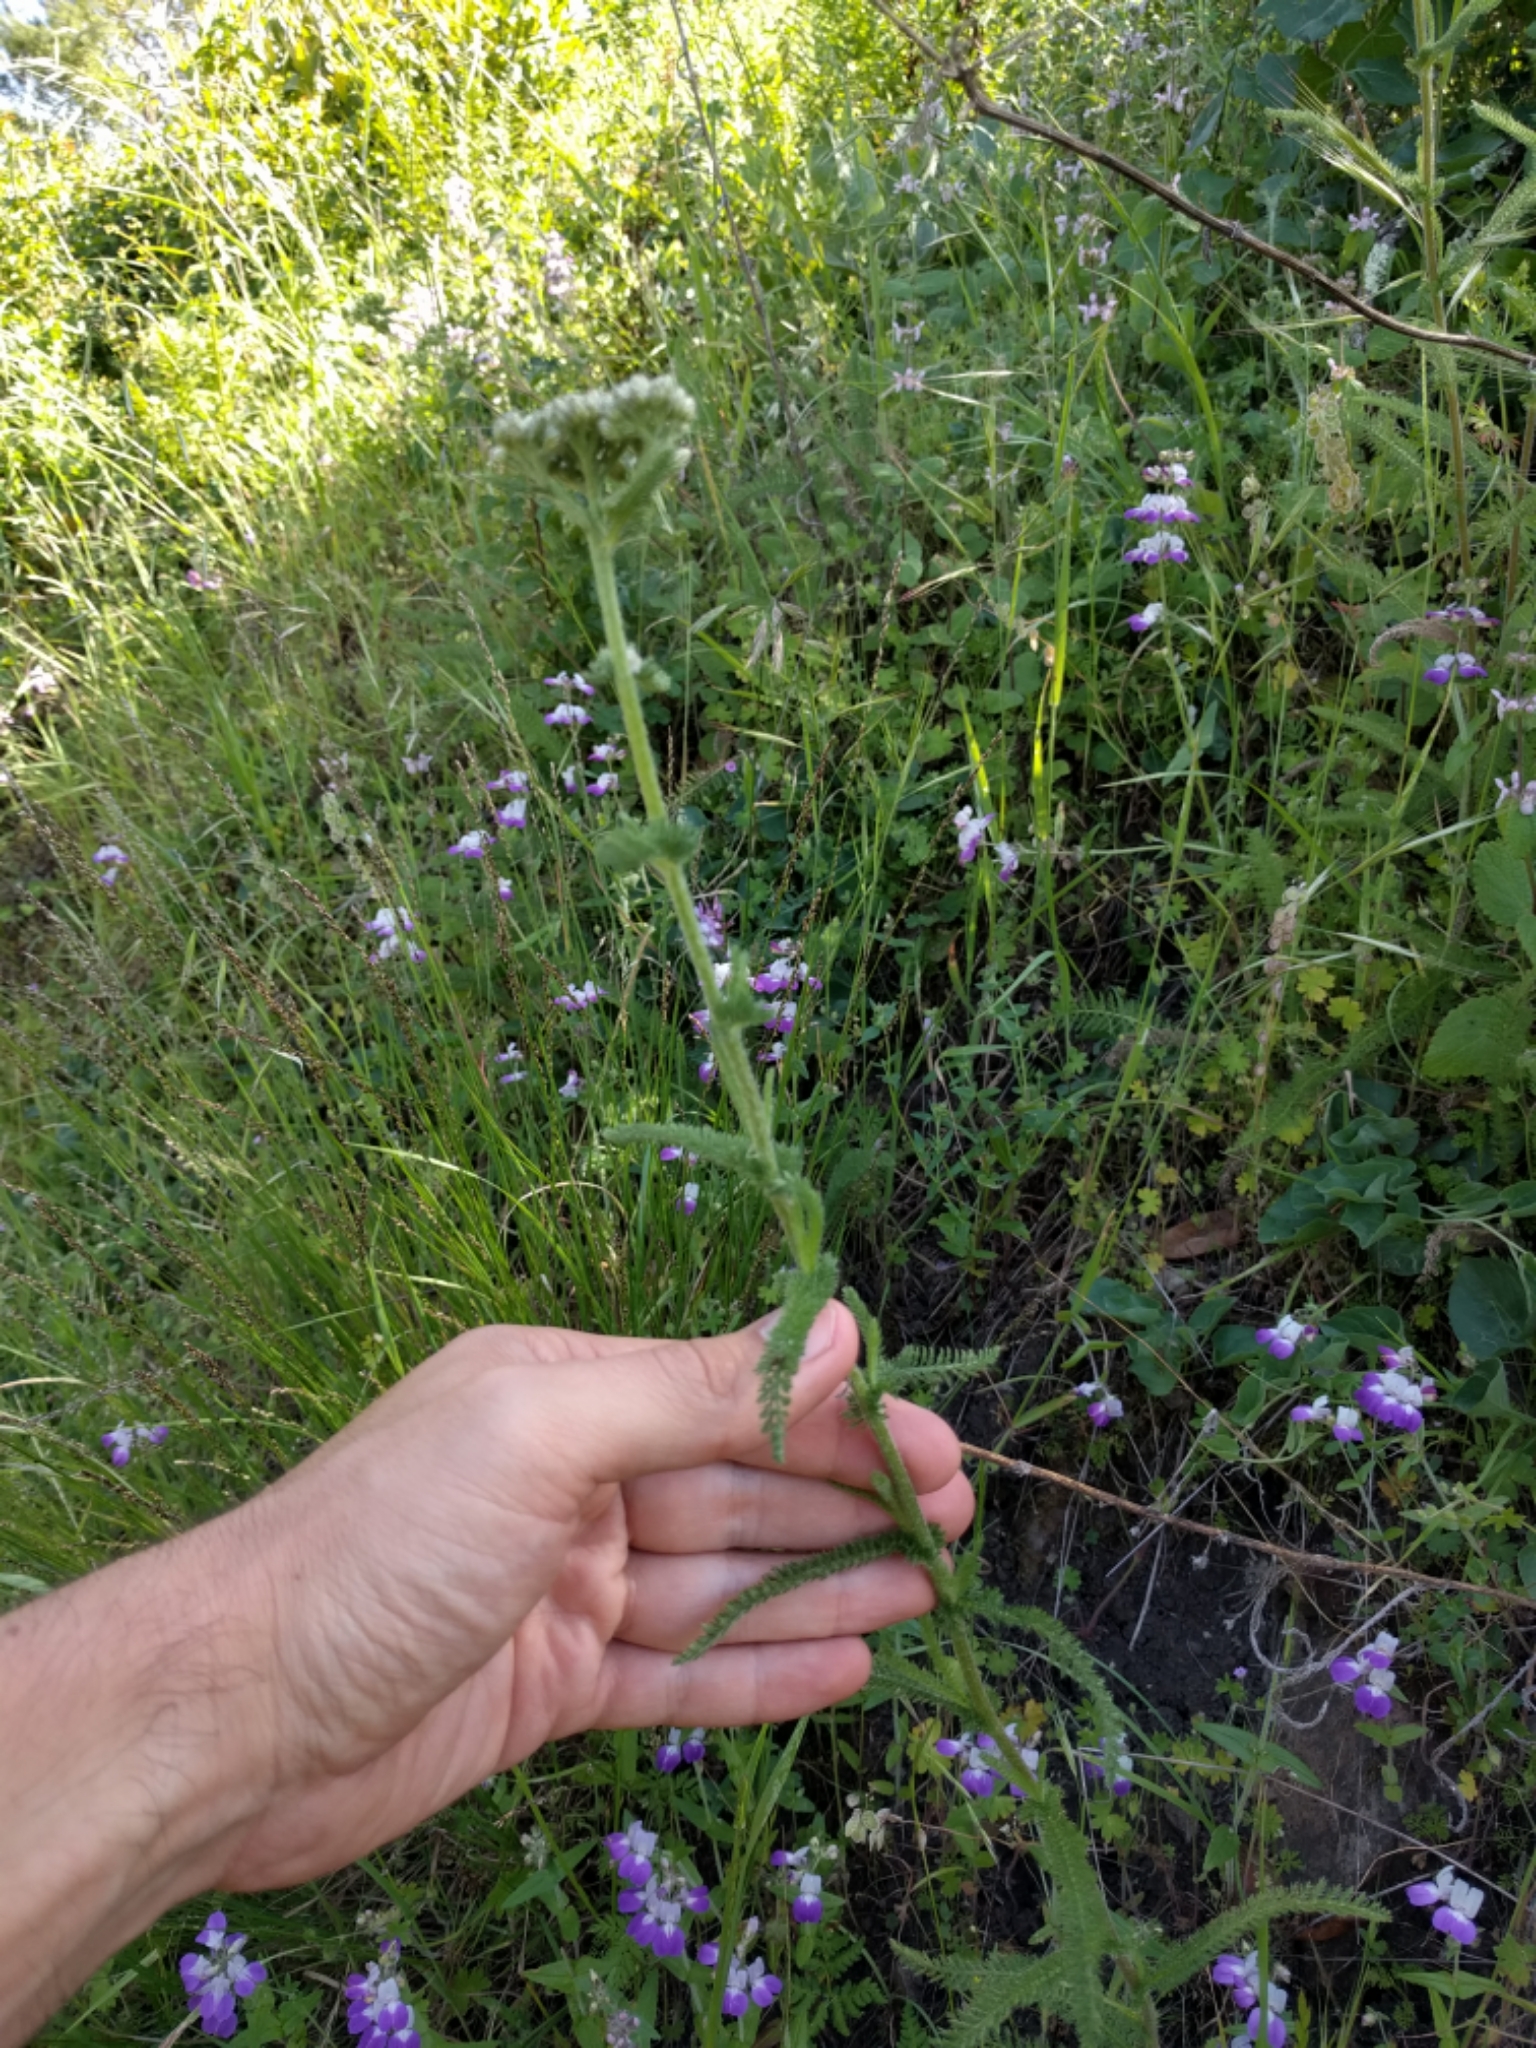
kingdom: Plantae
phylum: Tracheophyta
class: Magnoliopsida
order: Asterales
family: Asteraceae
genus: Achillea
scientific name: Achillea millefolium
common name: Yarrow
